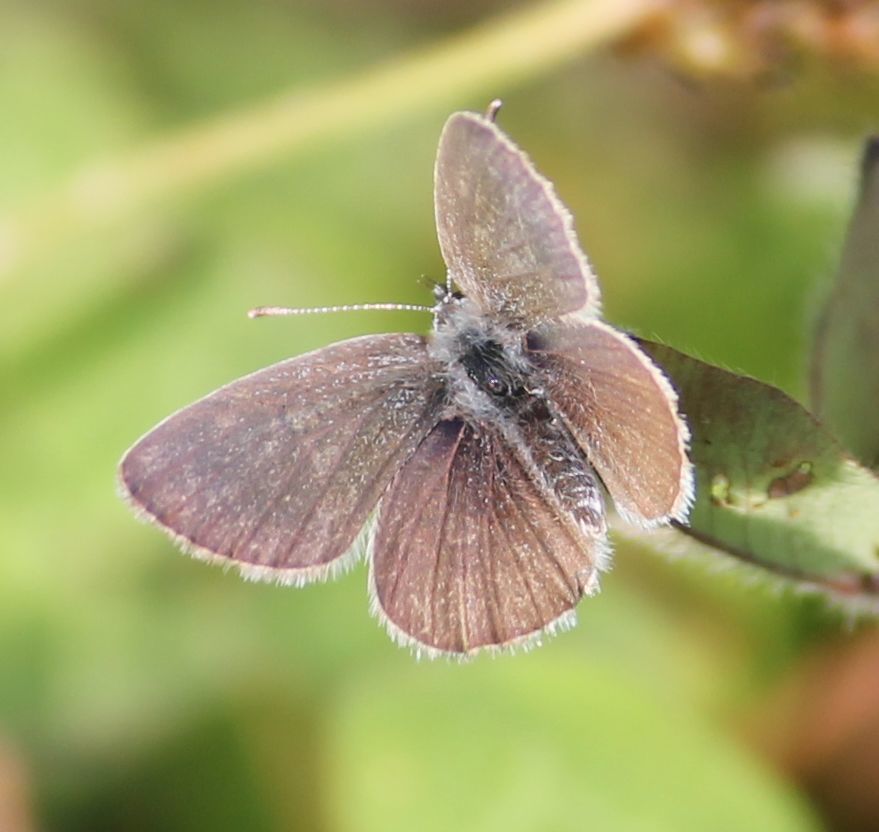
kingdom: Animalia
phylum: Arthropoda
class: Insecta
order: Lepidoptera
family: Lycaenidae
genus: Cupido
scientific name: Cupido minimus
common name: Small blue
